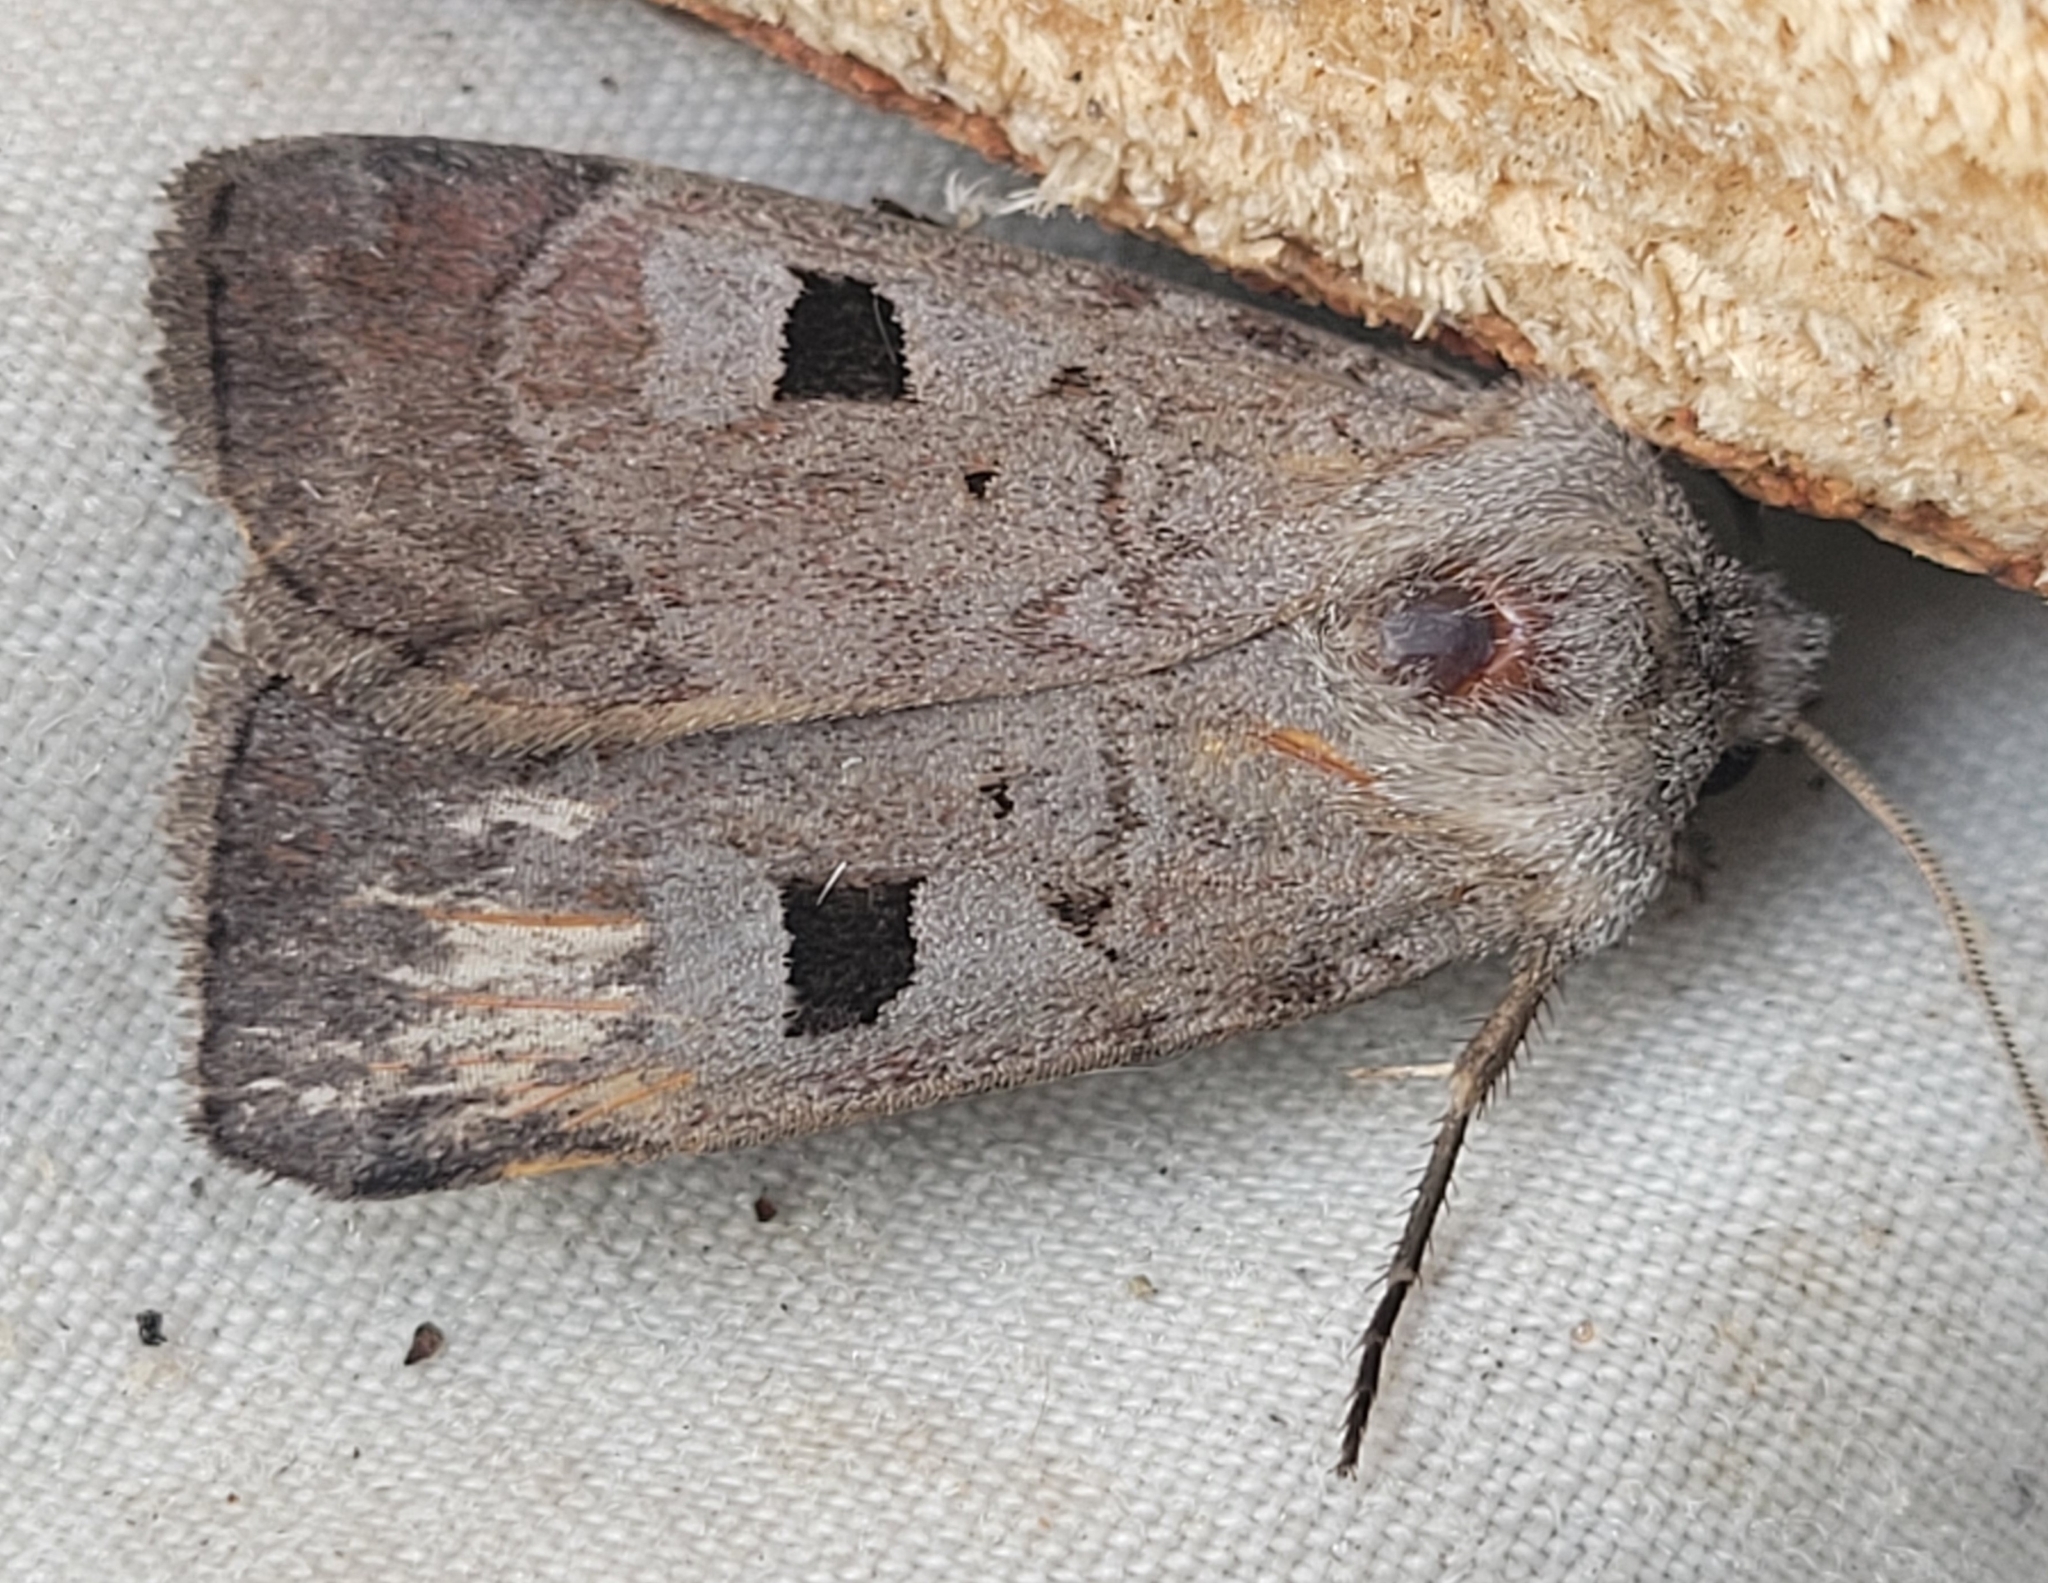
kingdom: Animalia
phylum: Arthropoda
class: Insecta
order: Lepidoptera
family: Noctuidae
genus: Feltia
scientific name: Feltia mollis
